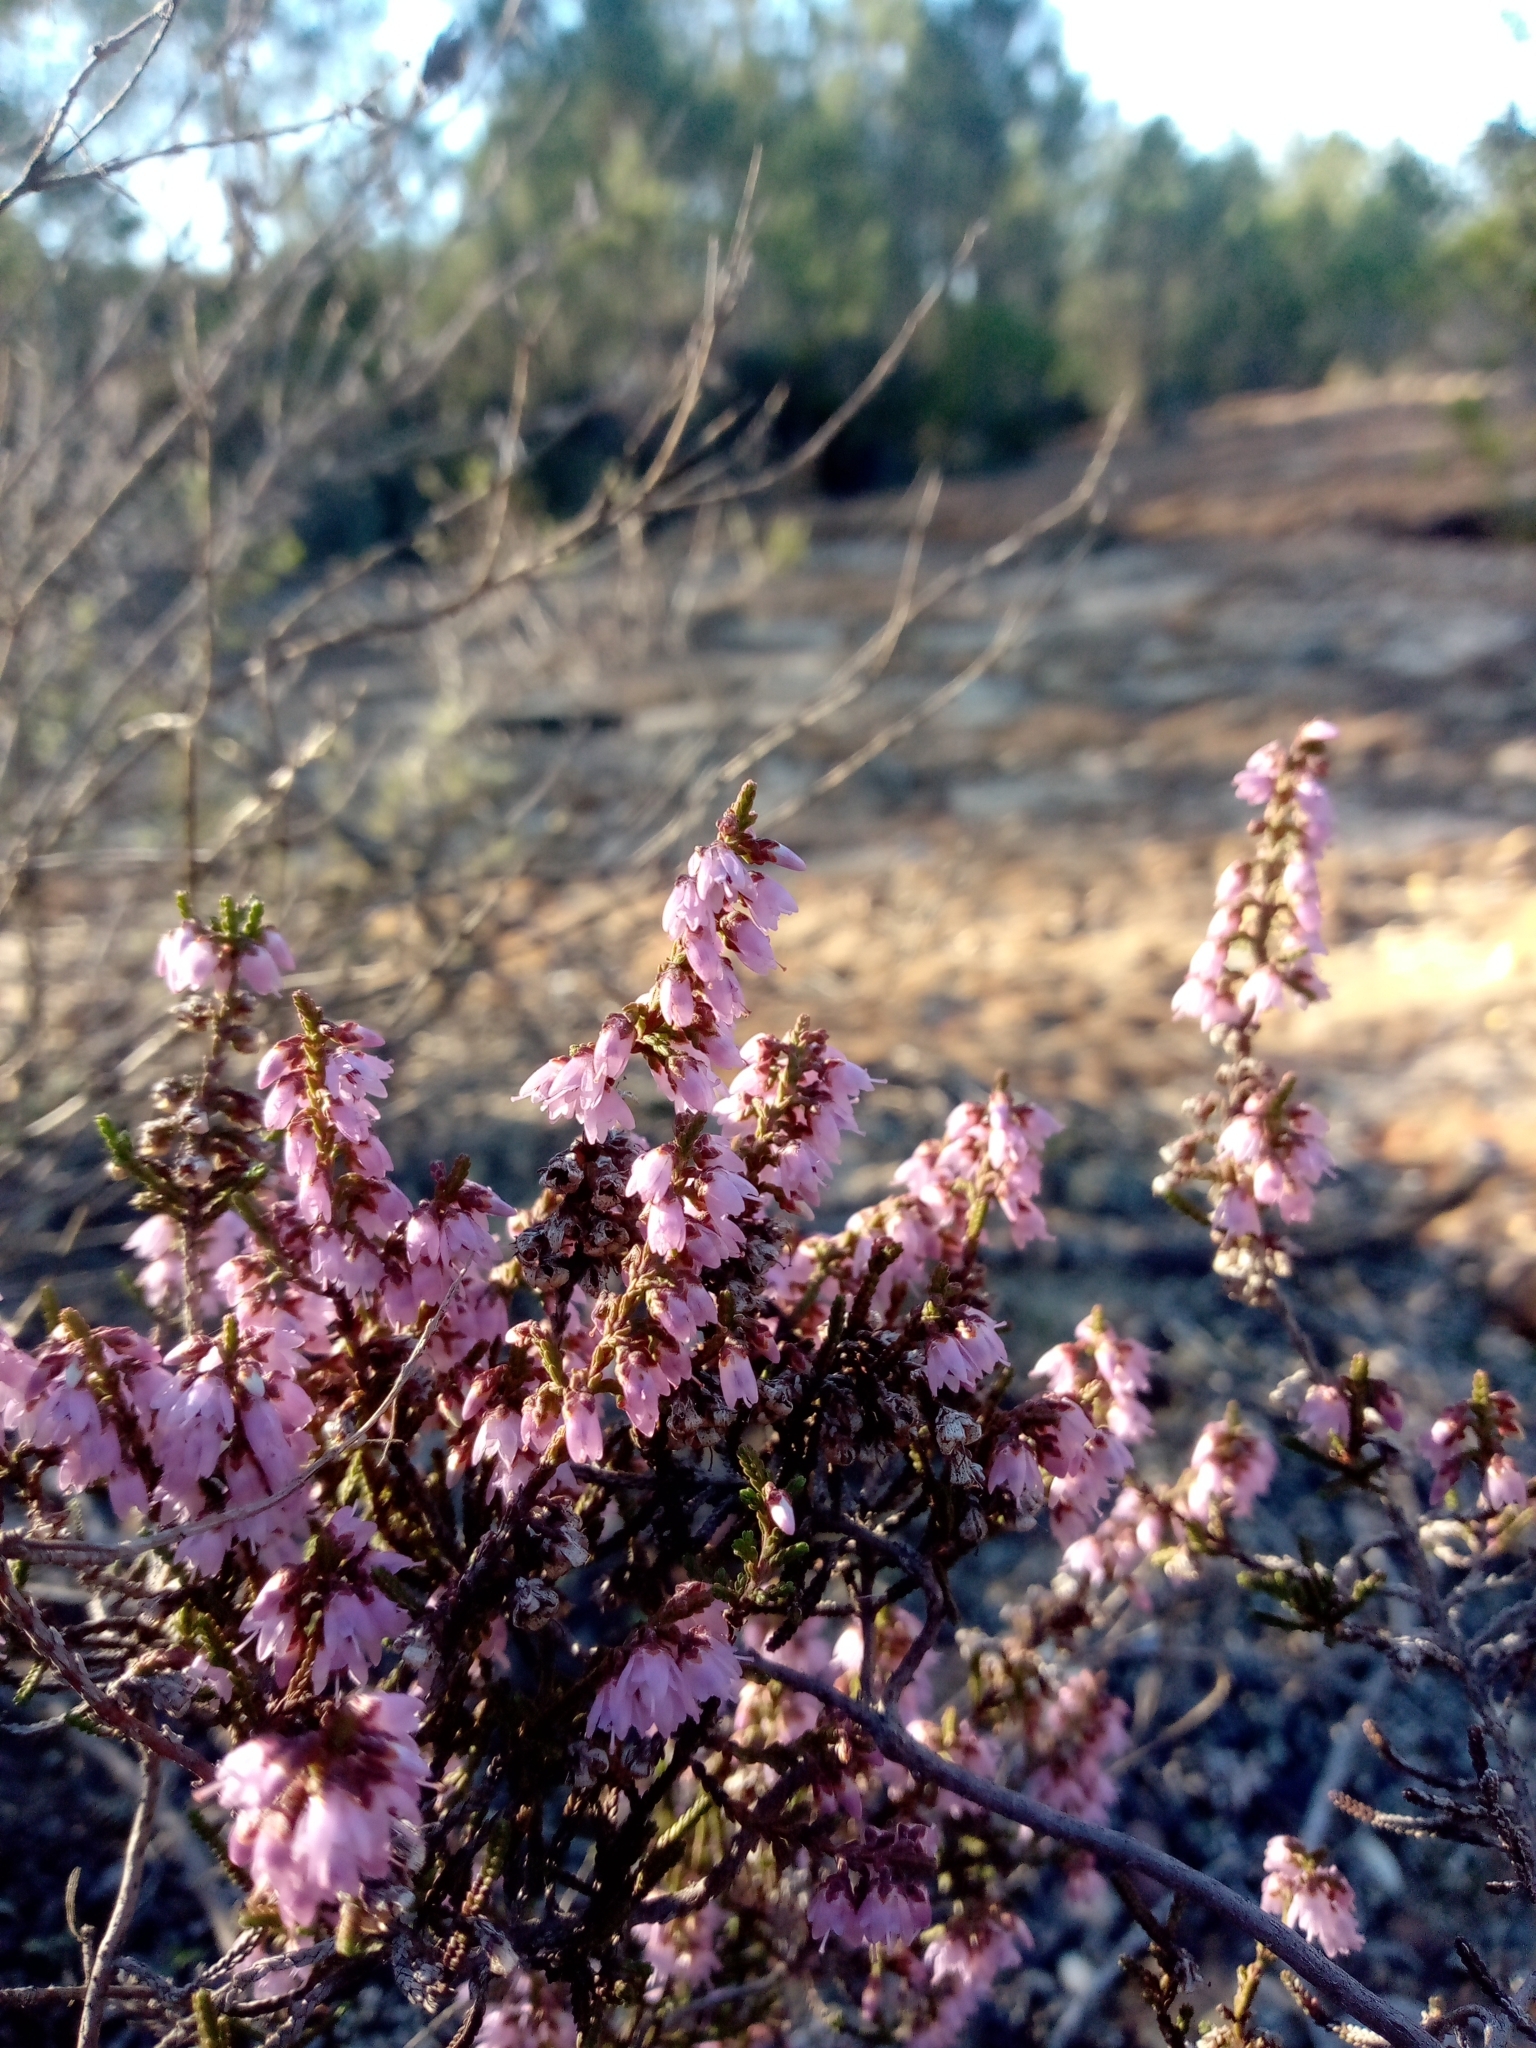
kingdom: Plantae
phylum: Tracheophyta
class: Magnoliopsida
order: Ericales
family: Ericaceae
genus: Calluna
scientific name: Calluna vulgaris
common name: Heather
